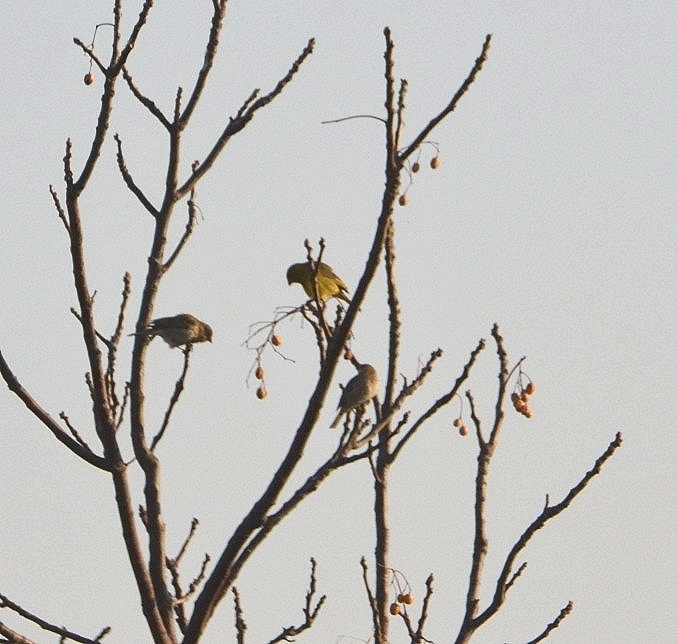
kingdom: Animalia
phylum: Chordata
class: Aves
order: Passeriformes
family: Thraupidae
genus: Sicalis
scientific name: Sicalis flaveola
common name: Saffron finch
